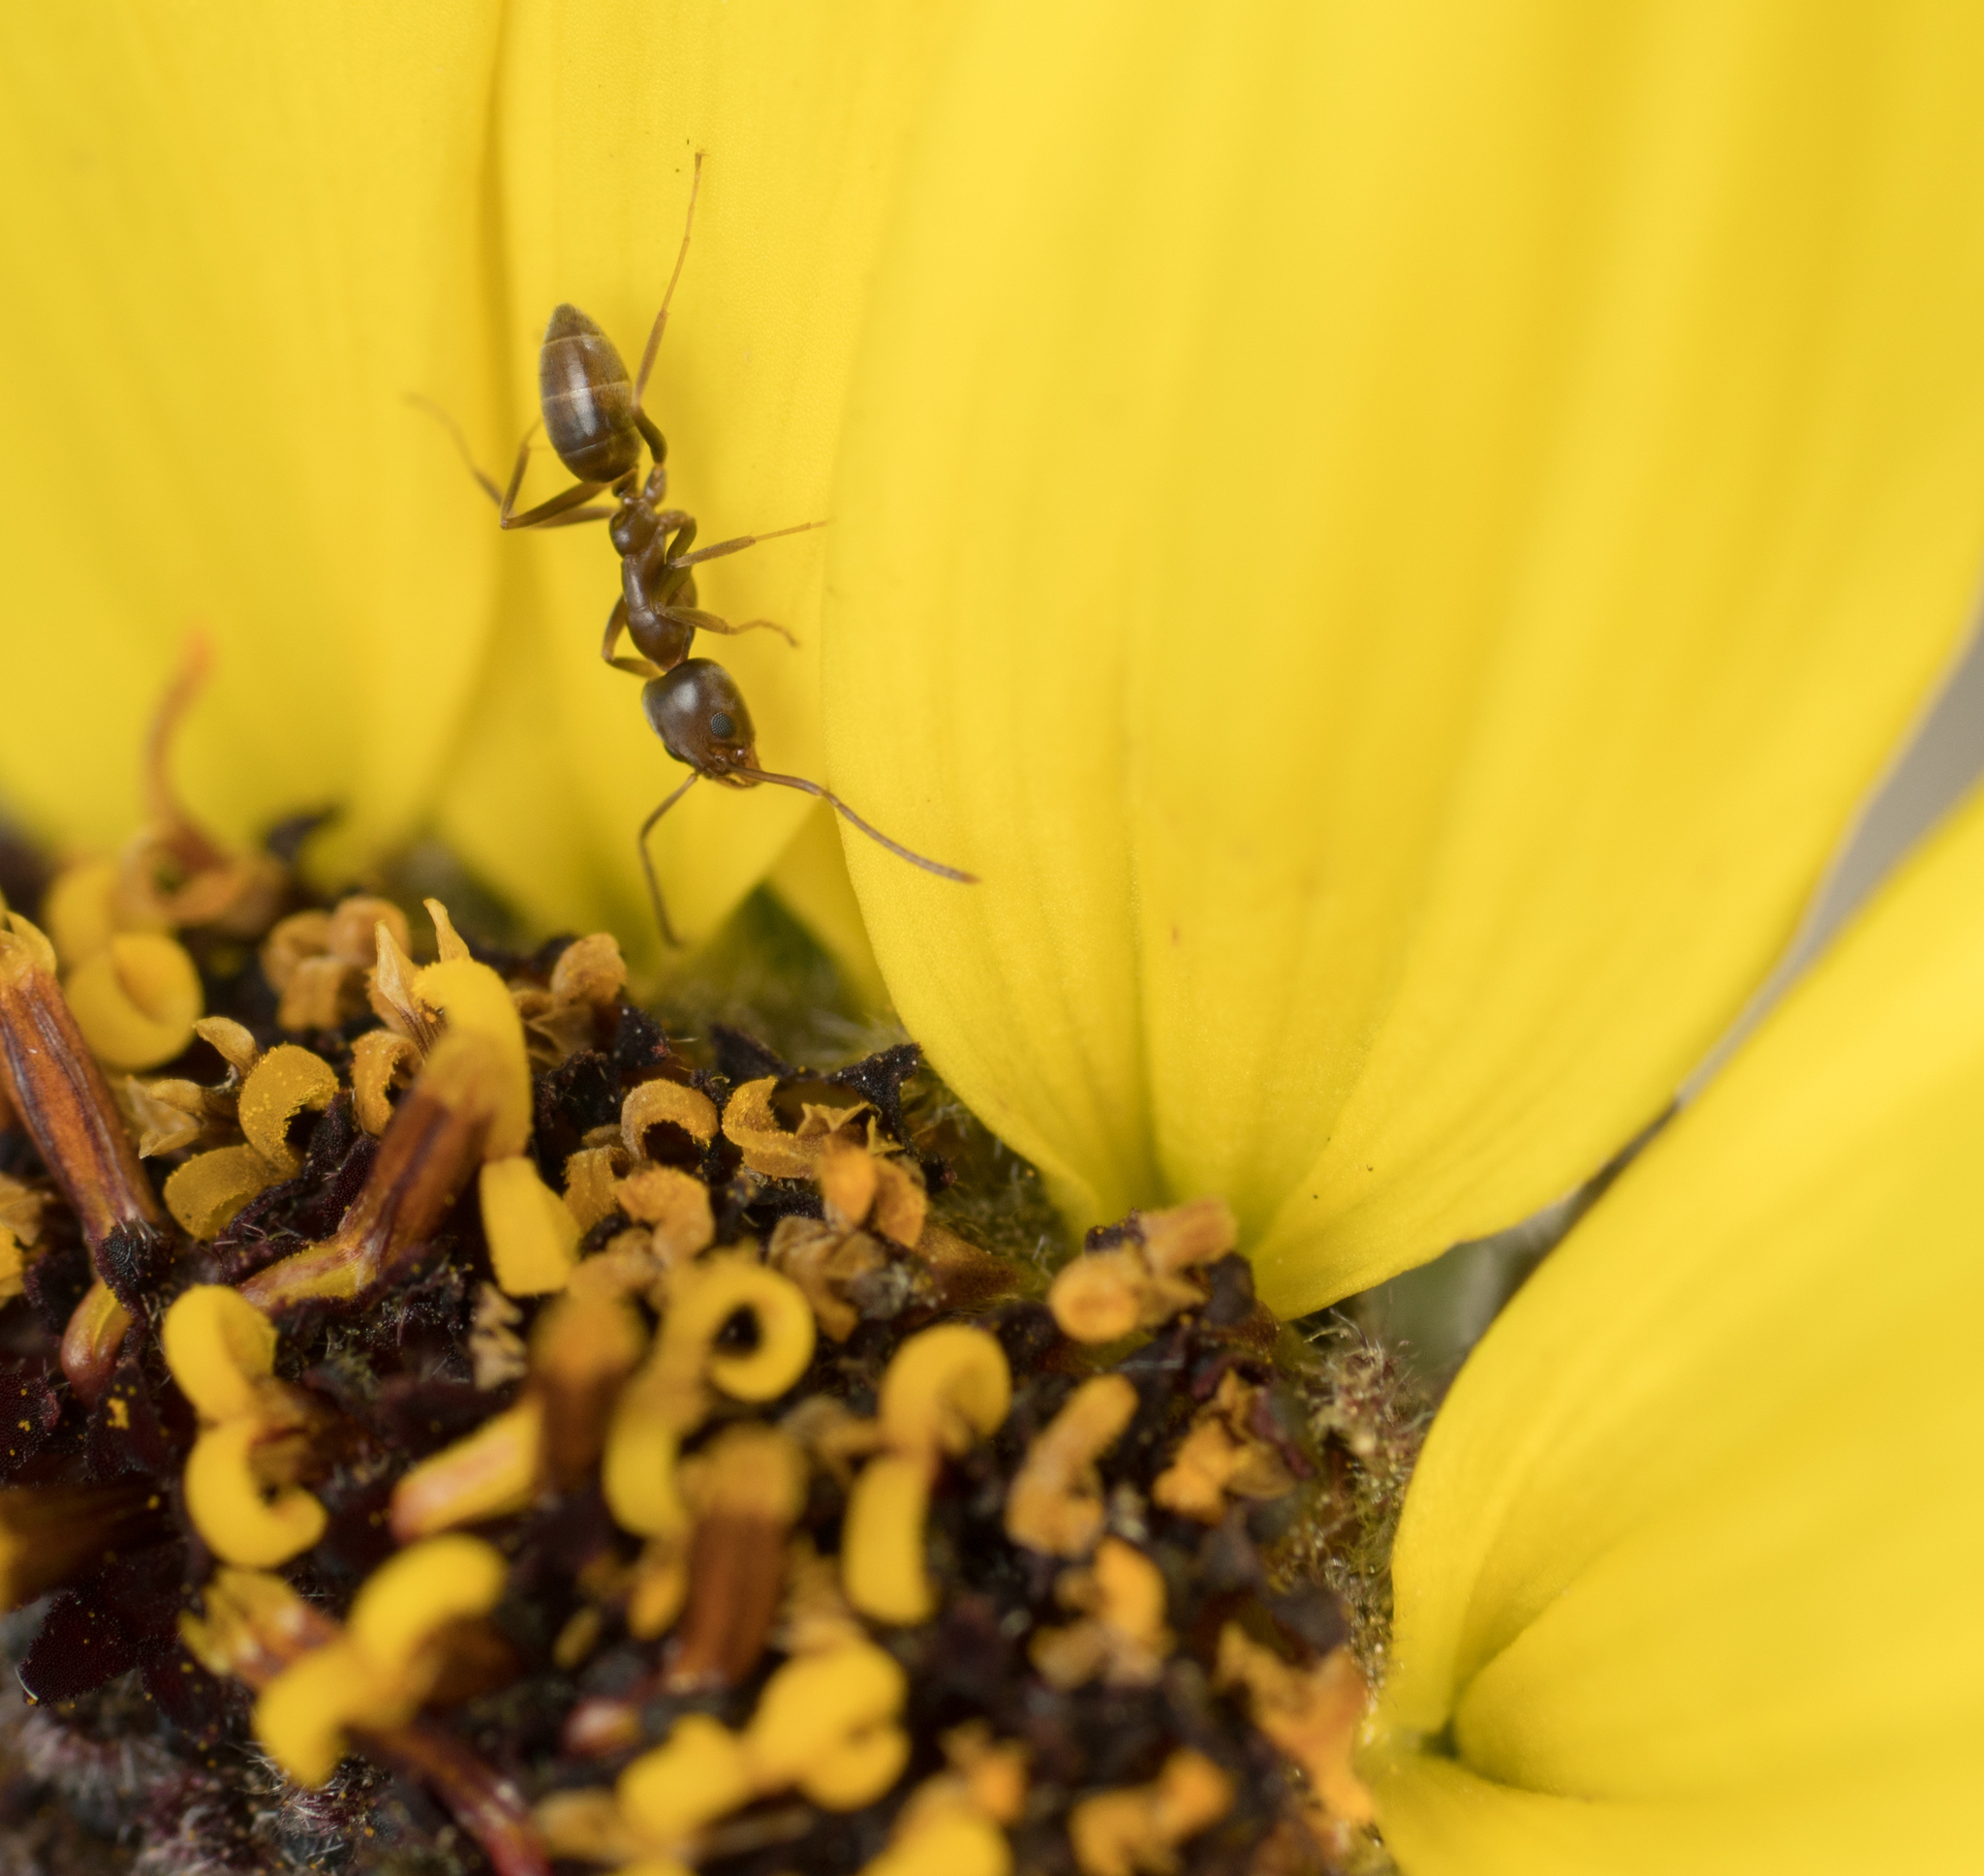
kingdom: Animalia
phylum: Arthropoda
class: Insecta
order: Hymenoptera
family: Formicidae
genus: Linepithema
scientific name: Linepithema humile
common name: Argentine ant
